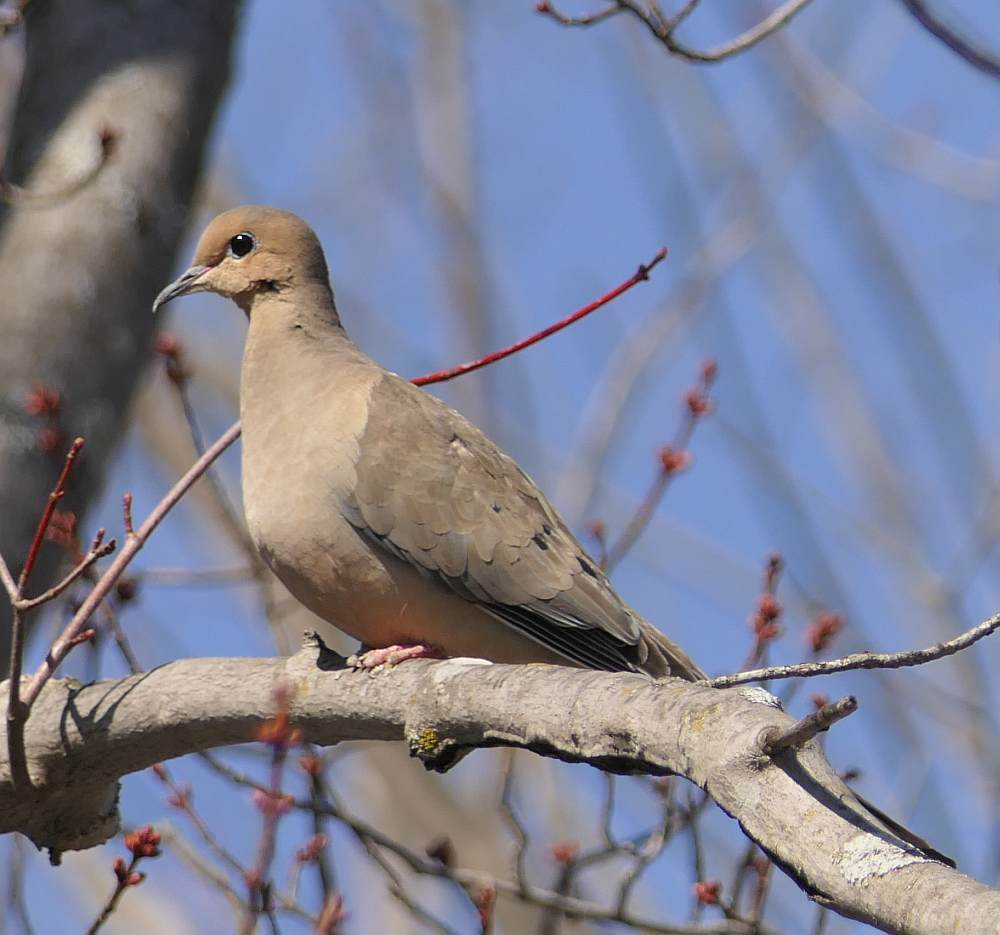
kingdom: Animalia
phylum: Chordata
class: Aves
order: Columbiformes
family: Columbidae
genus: Zenaida
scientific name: Zenaida macroura
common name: Mourning dove
